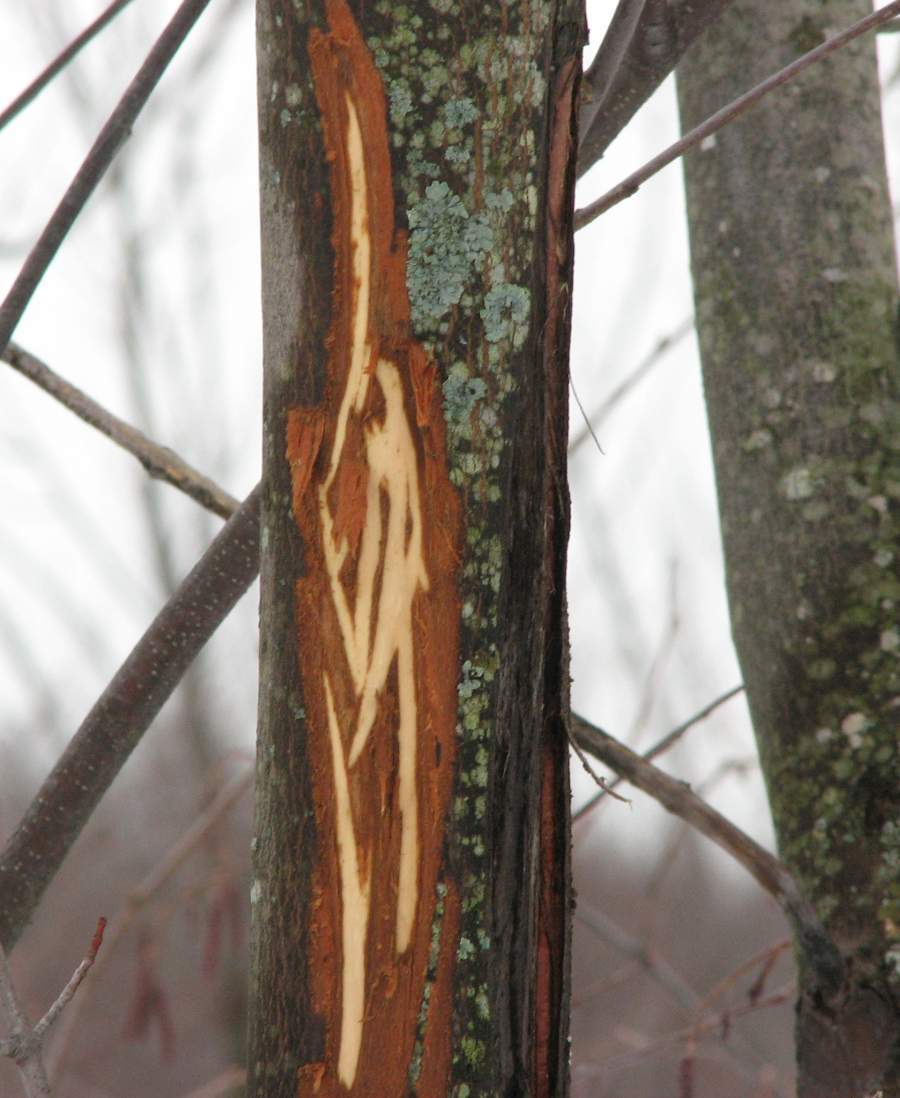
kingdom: Animalia
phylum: Chordata
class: Mammalia
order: Artiodactyla
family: Cervidae
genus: Alces
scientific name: Alces alces
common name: Moose
